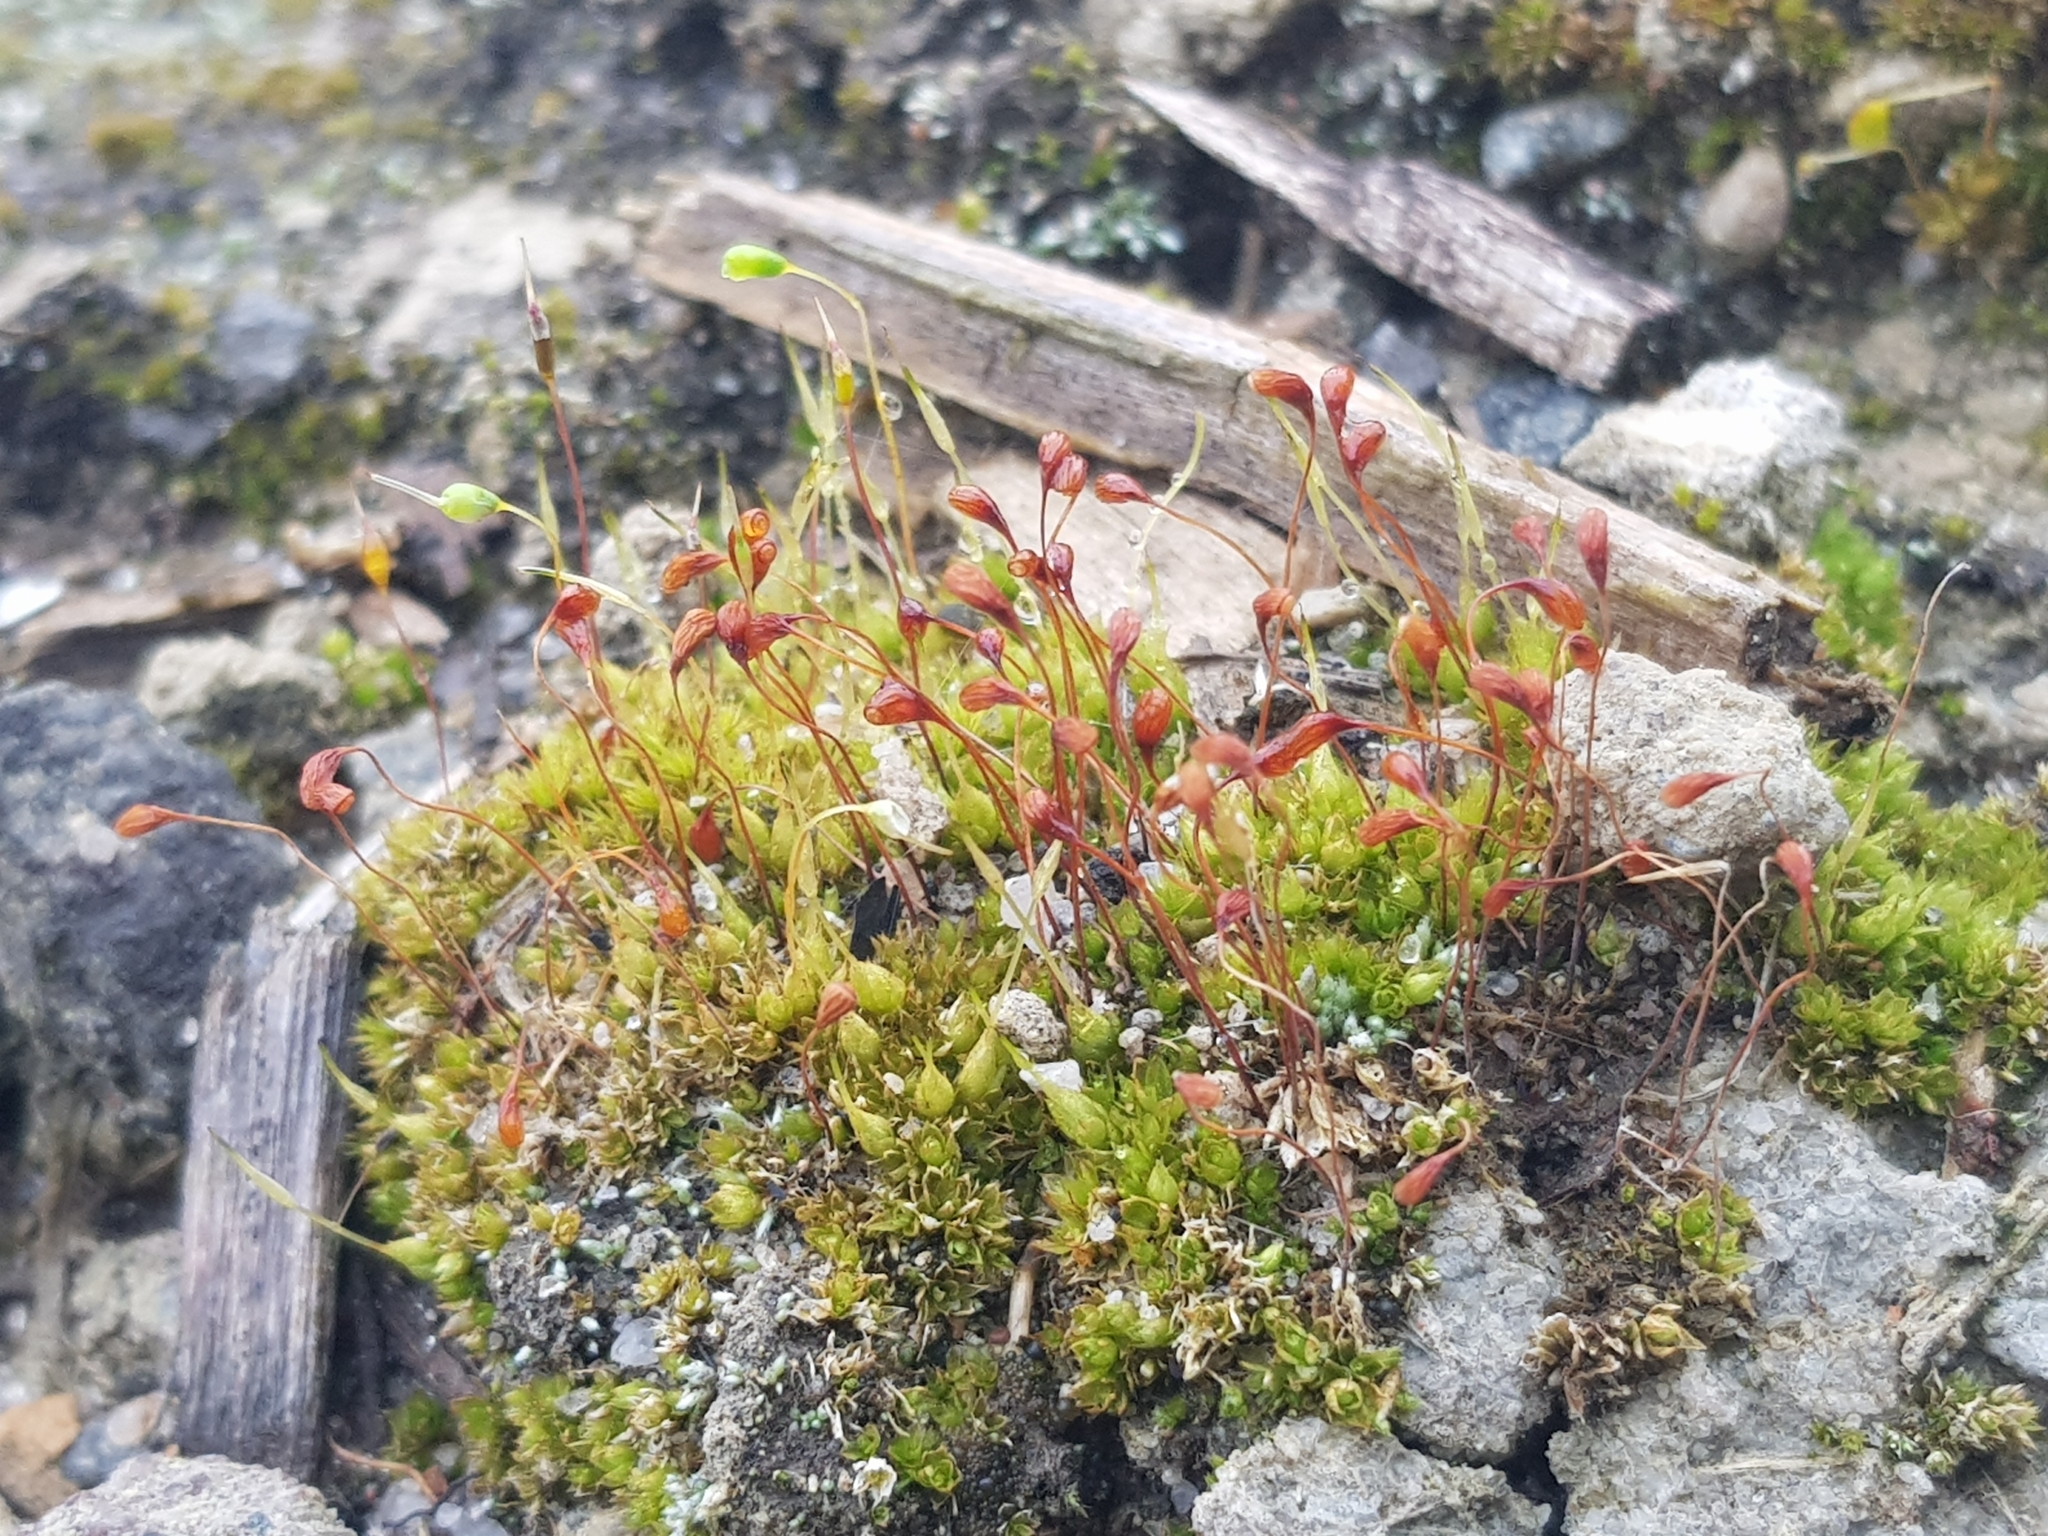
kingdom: Plantae
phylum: Bryophyta
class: Bryopsida
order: Funariales
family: Funariaceae
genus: Funaria
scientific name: Funaria hygrometrica
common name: Common cord moss
